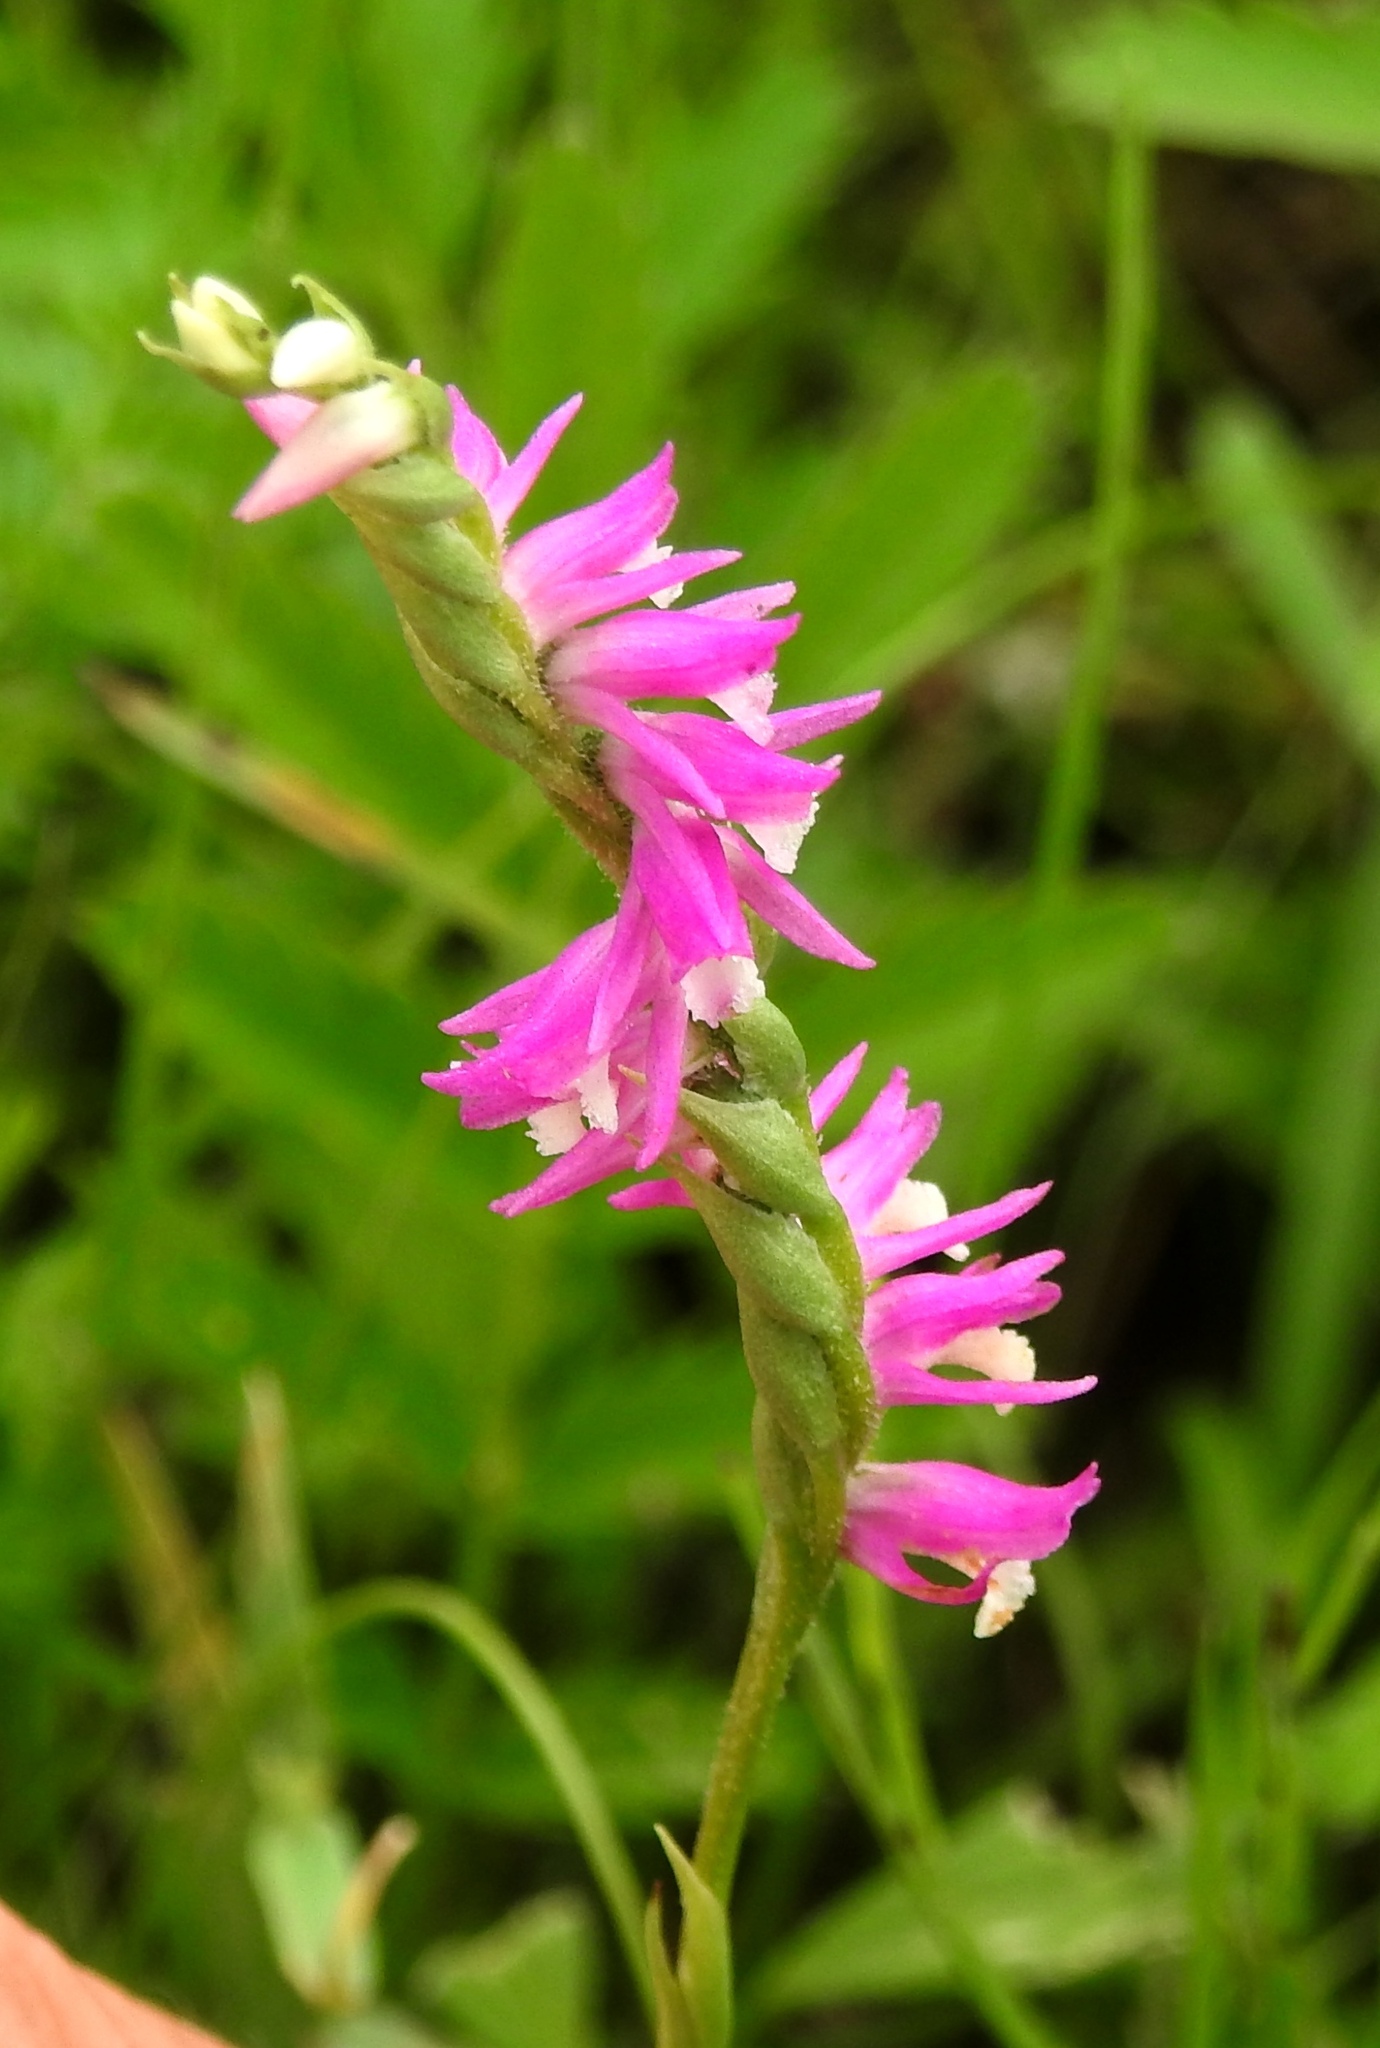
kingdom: Plantae
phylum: Tracheophyta
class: Liliopsida
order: Asparagales
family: Orchidaceae
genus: Spiranthes
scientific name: Spiranthes australis
